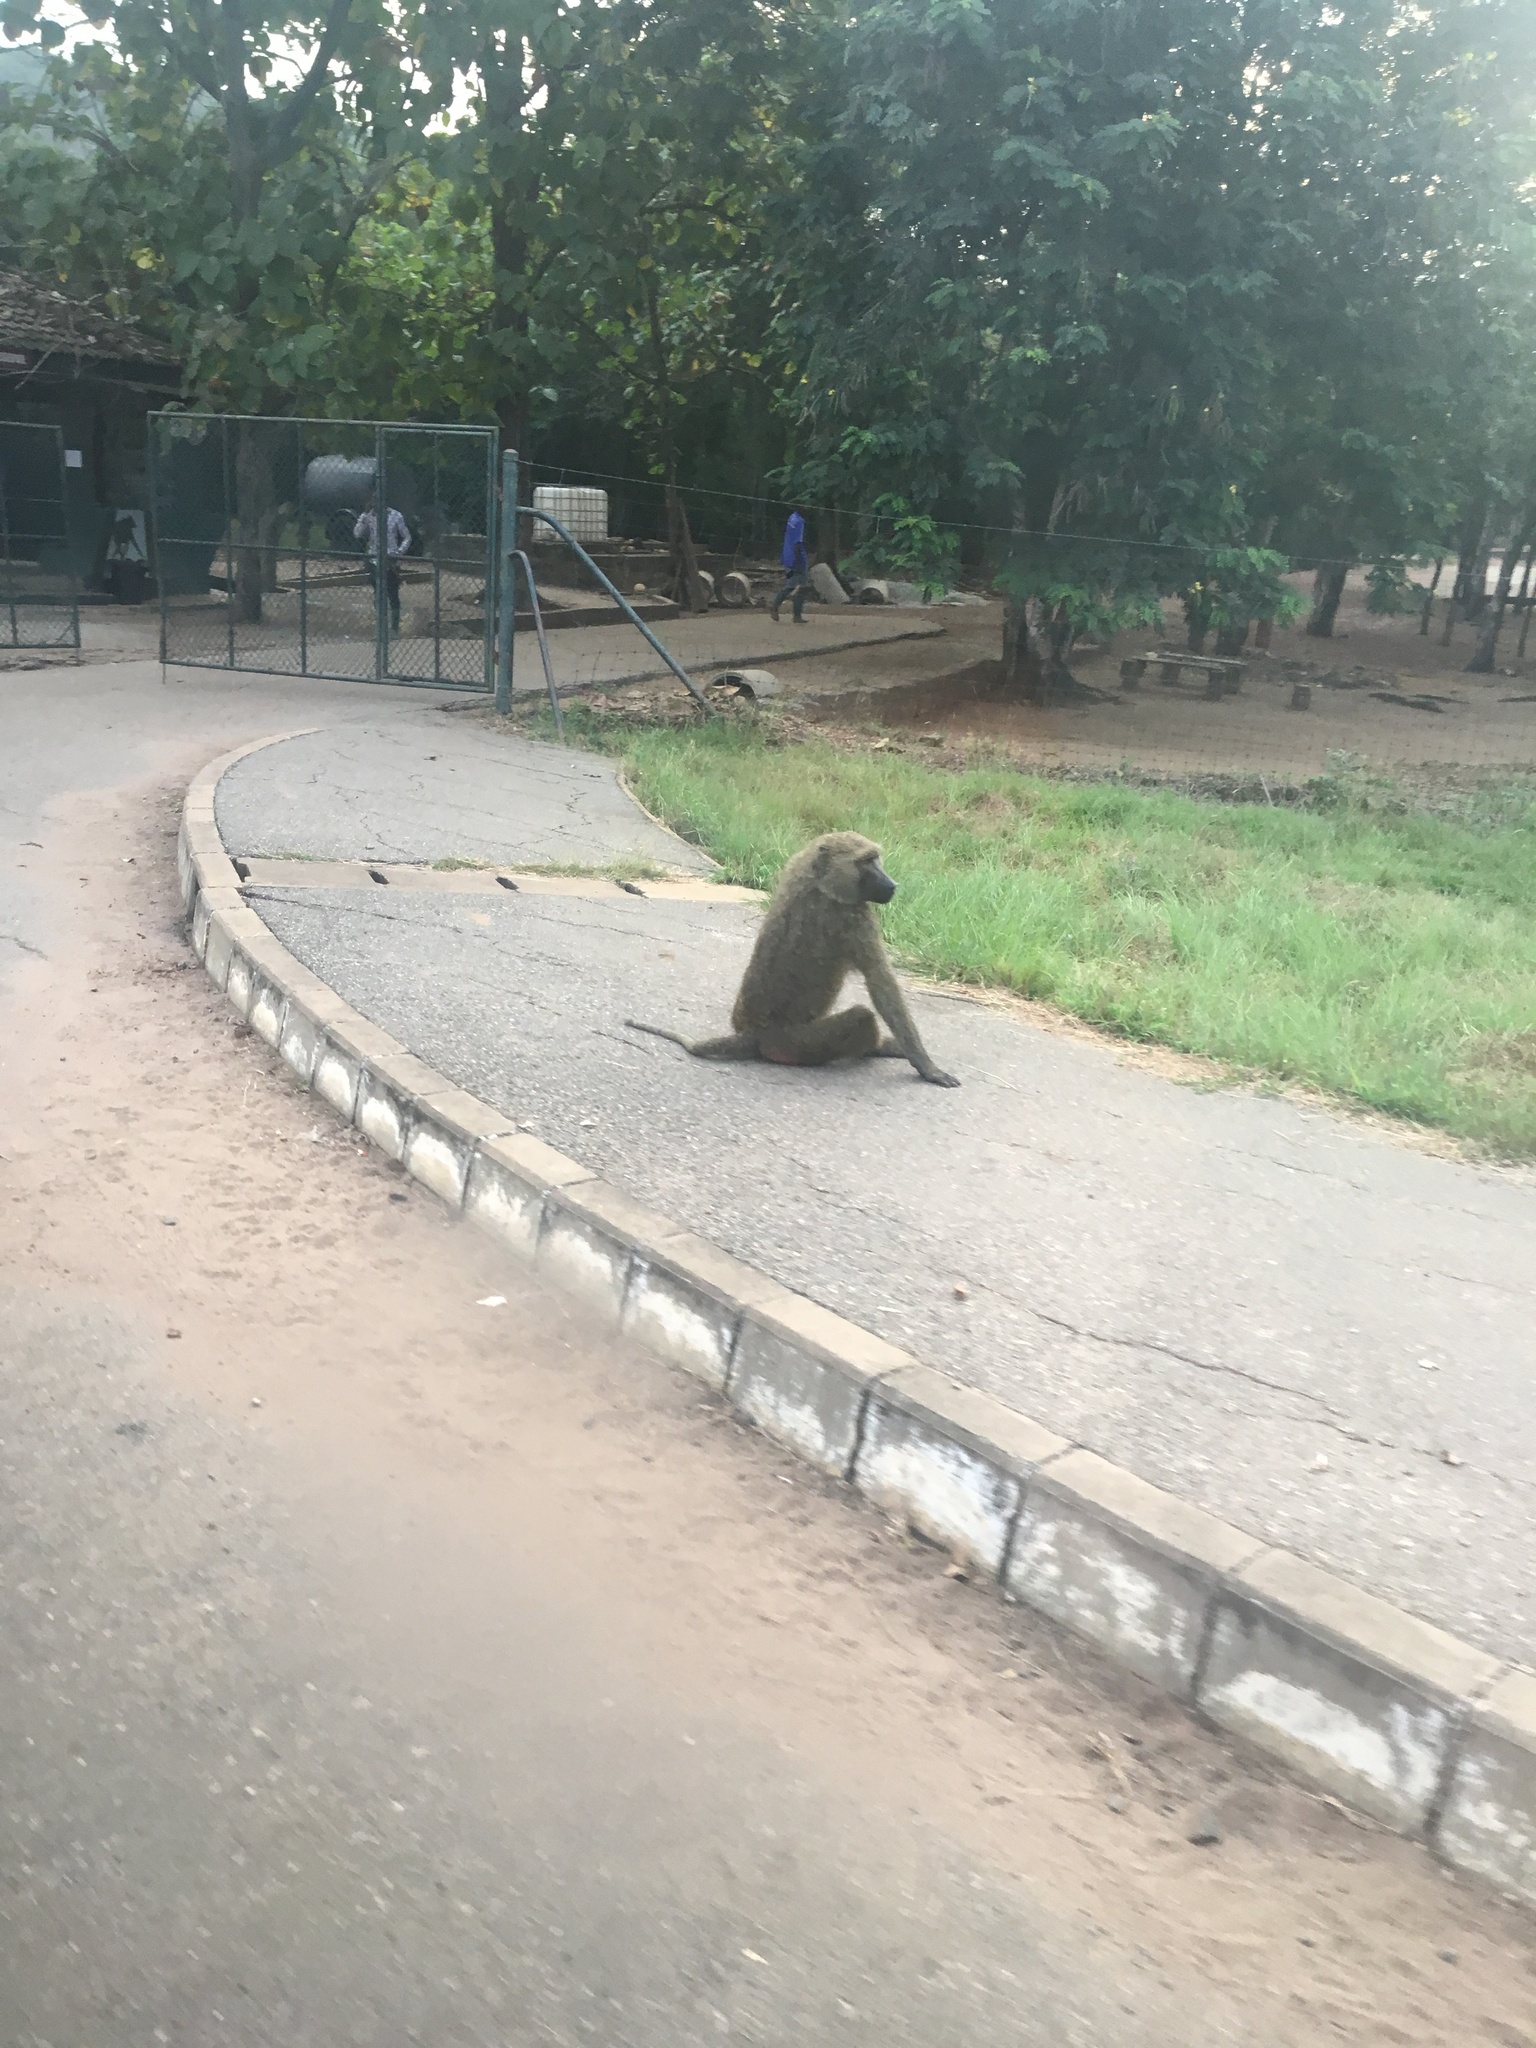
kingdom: Animalia
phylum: Chordata
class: Mammalia
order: Primates
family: Cercopithecidae
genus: Papio
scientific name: Papio anubis
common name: Olive baboon
